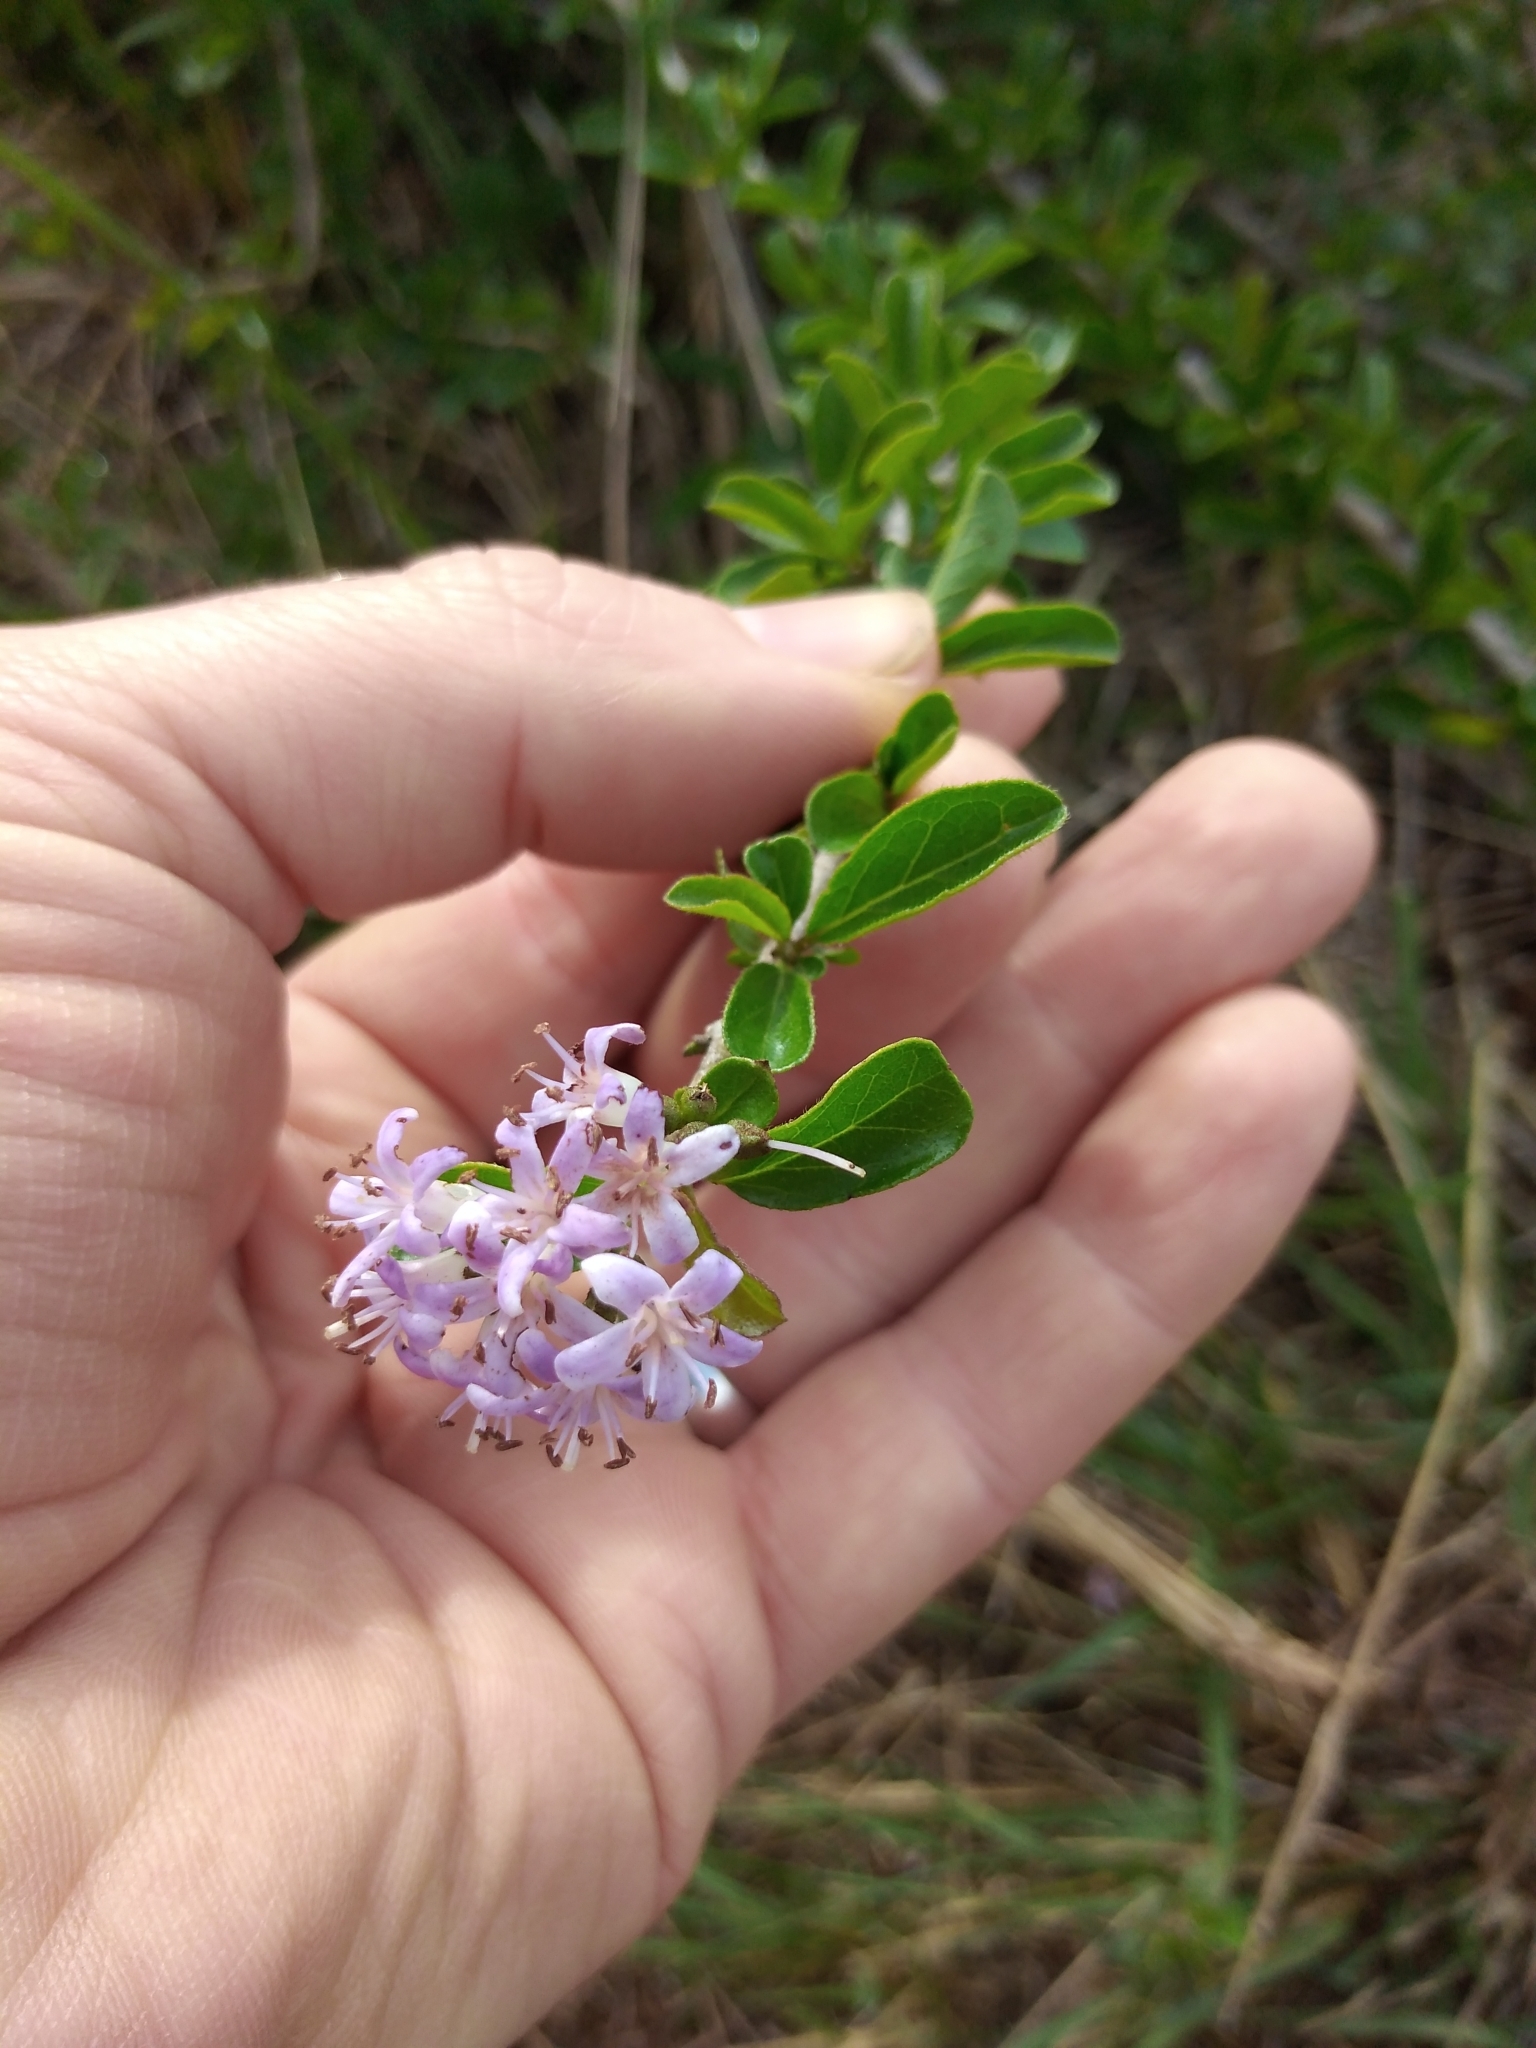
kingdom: Plantae
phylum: Tracheophyta
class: Magnoliopsida
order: Boraginales
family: Ehretiaceae
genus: Ehretia
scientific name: Ehretia rigida
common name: Cape lilac
